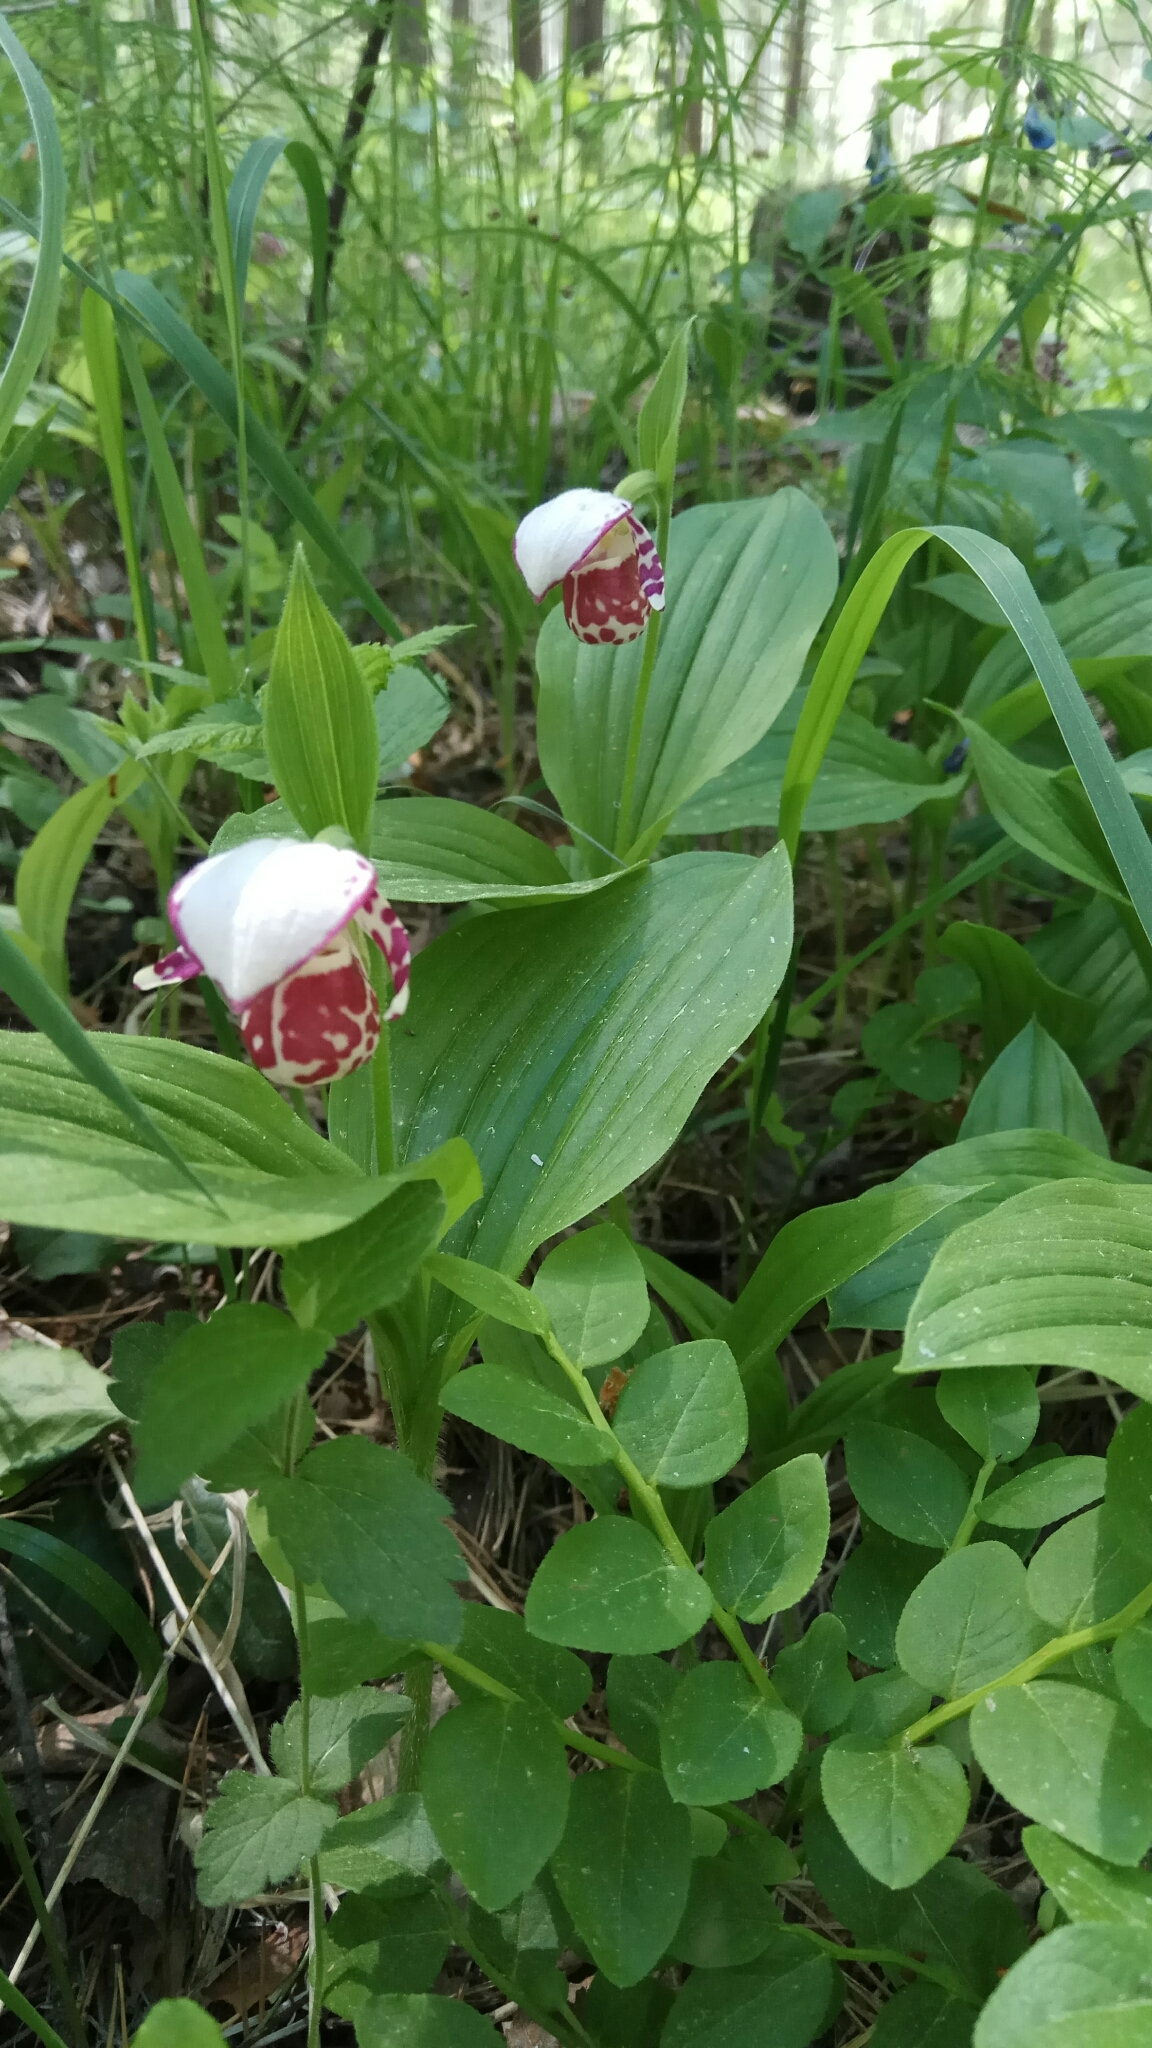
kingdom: Plantae
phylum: Tracheophyta
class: Liliopsida
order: Asparagales
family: Orchidaceae
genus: Cypripedium
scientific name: Cypripedium guttatum
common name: Pink lady slipper
